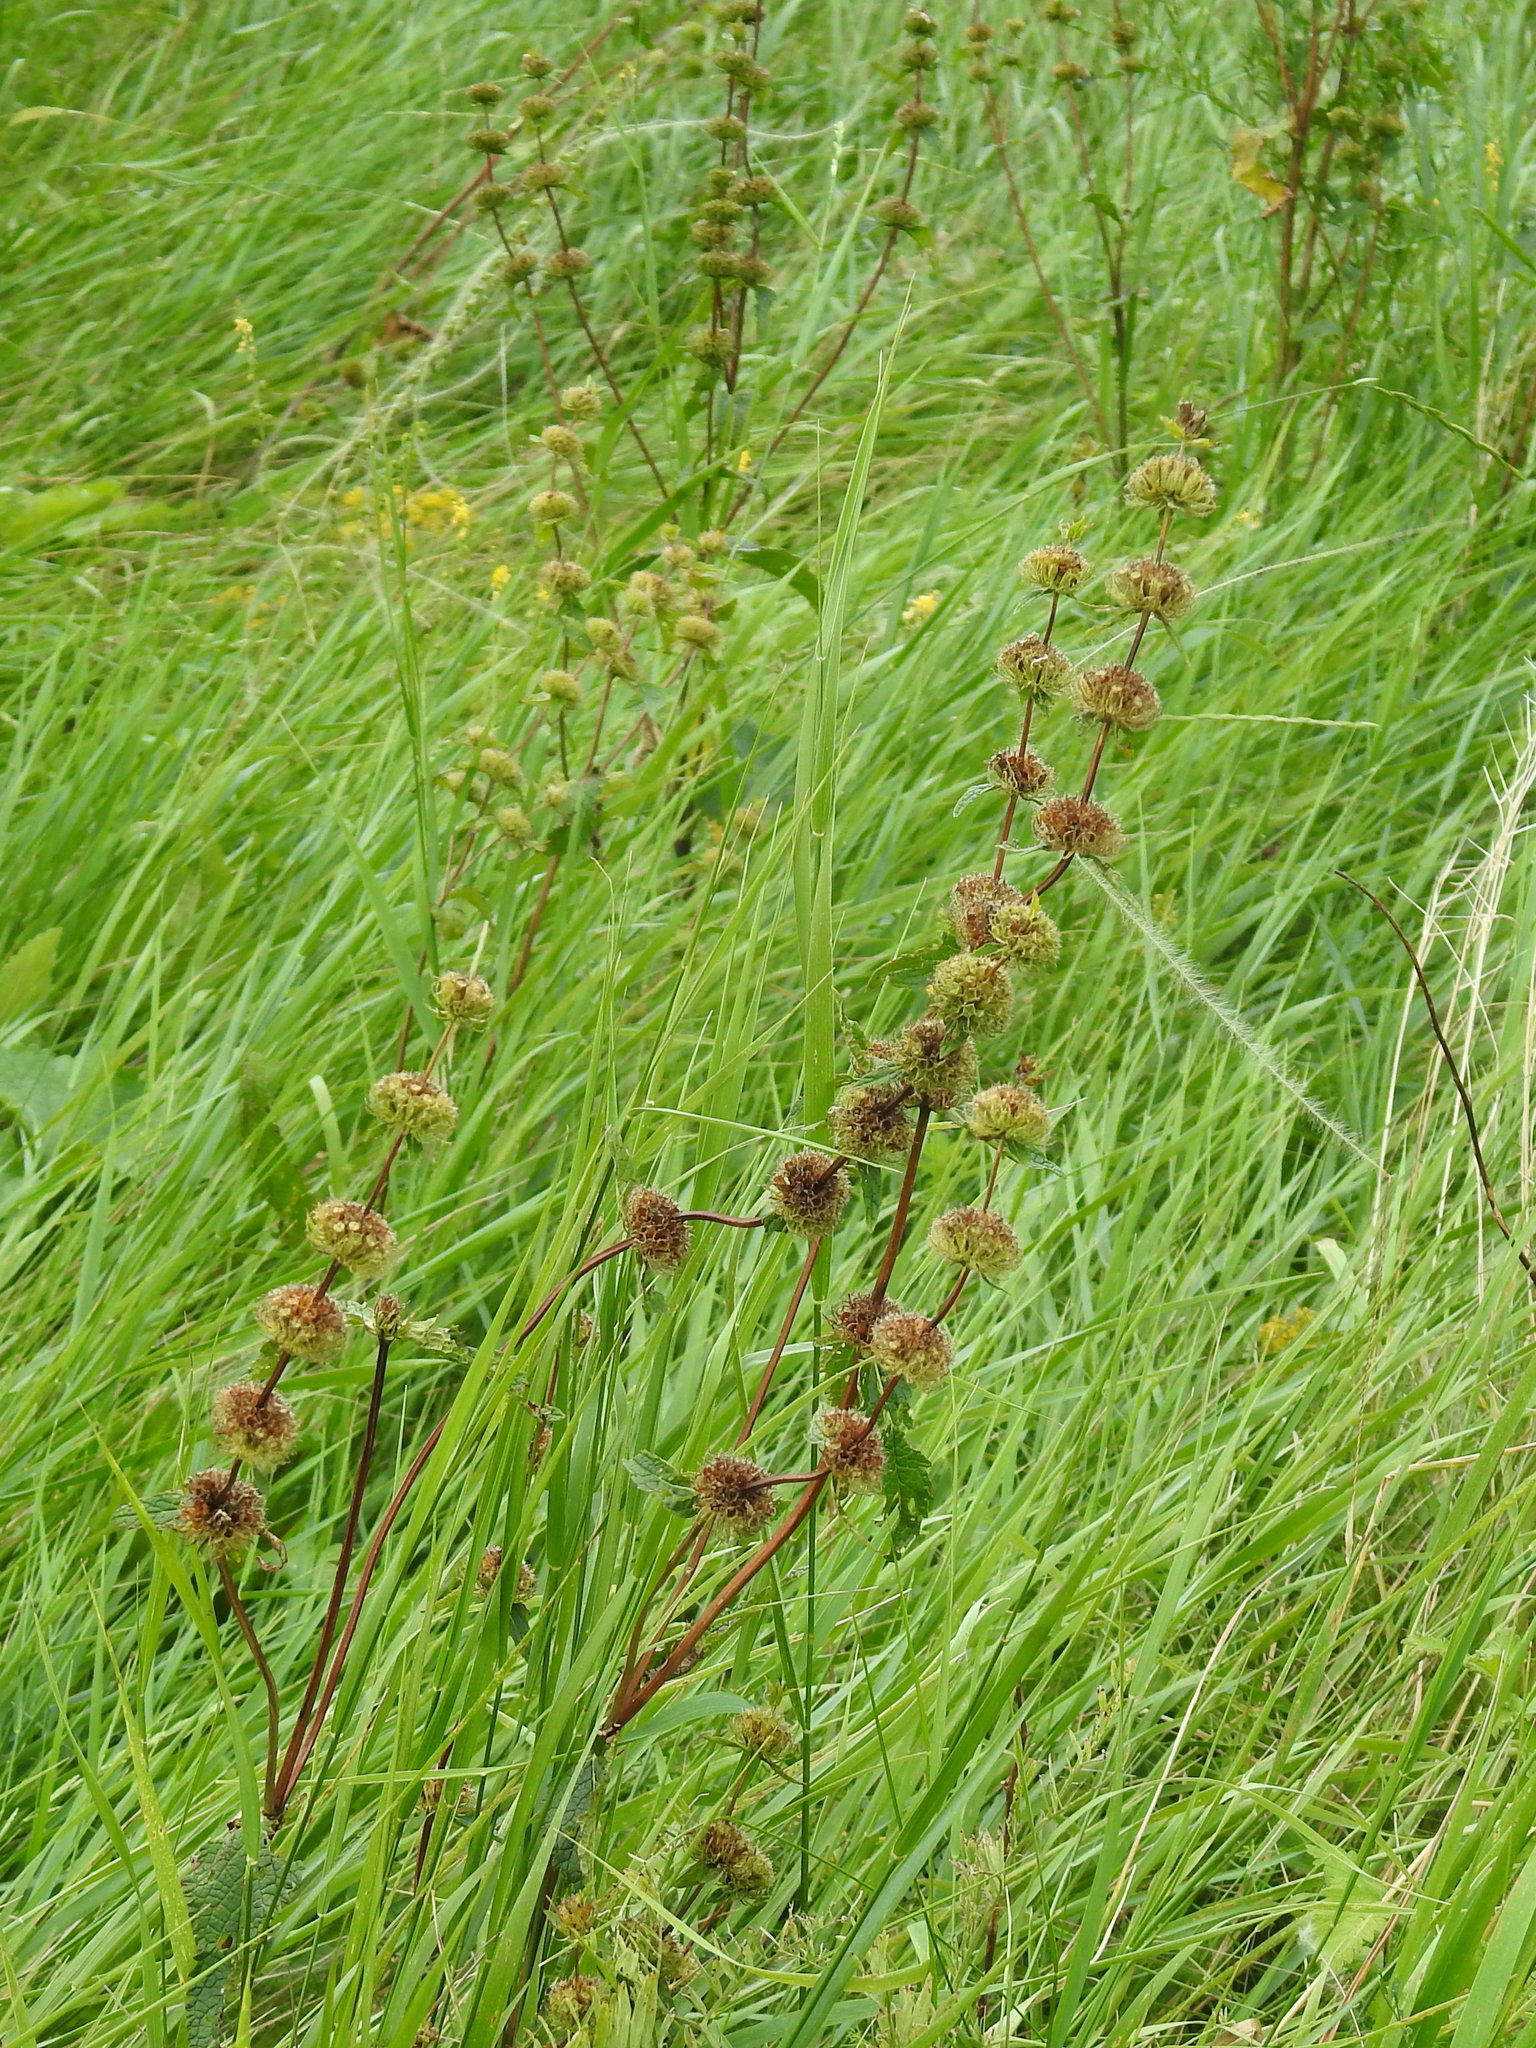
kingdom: Plantae
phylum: Tracheophyta
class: Magnoliopsida
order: Lamiales
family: Lamiaceae
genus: Phlomoides
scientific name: Phlomoides tuberosa
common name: Tuberous jerusalem sage
